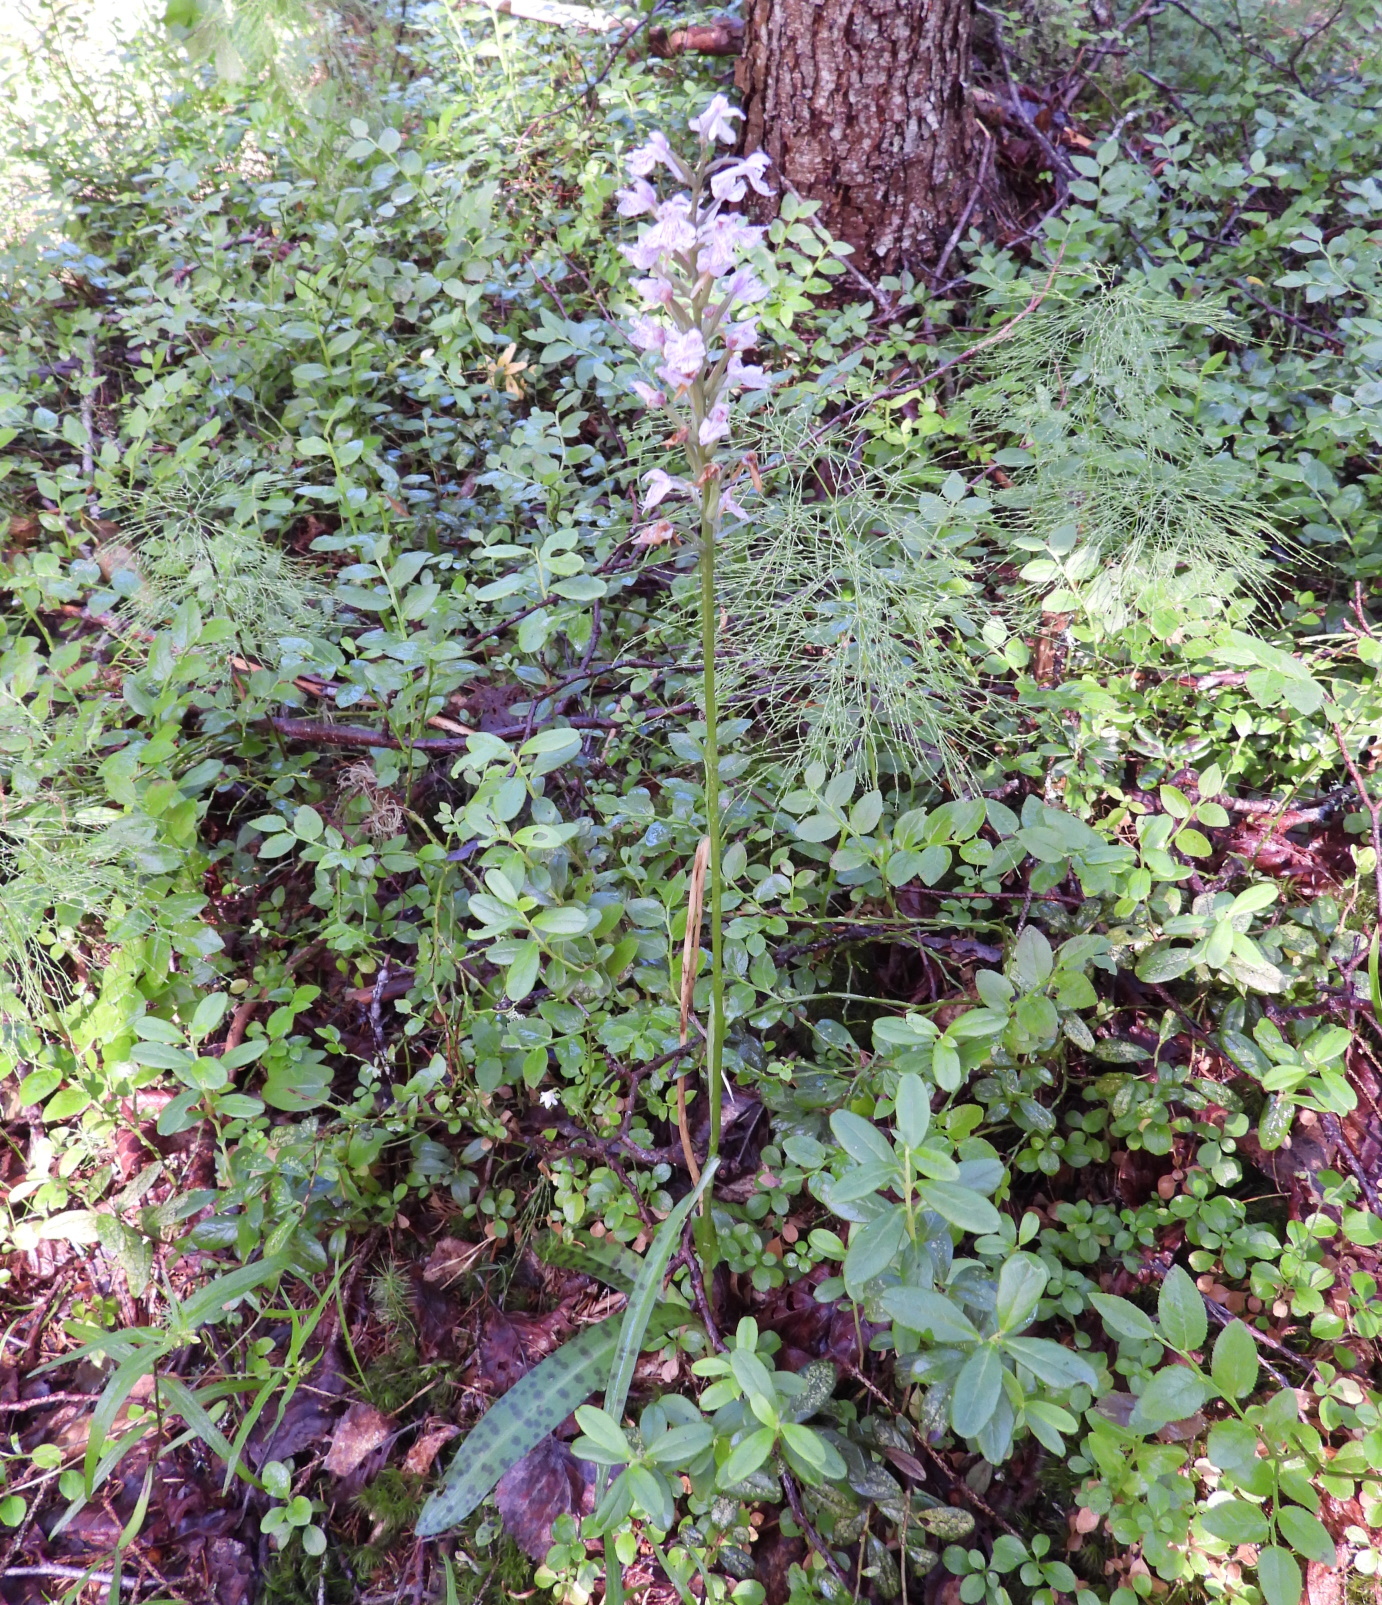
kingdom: Plantae
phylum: Tracheophyta
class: Liliopsida
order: Asparagales
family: Orchidaceae
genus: Dactylorhiza
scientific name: Dactylorhiza maculata
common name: Heath spotted-orchid
